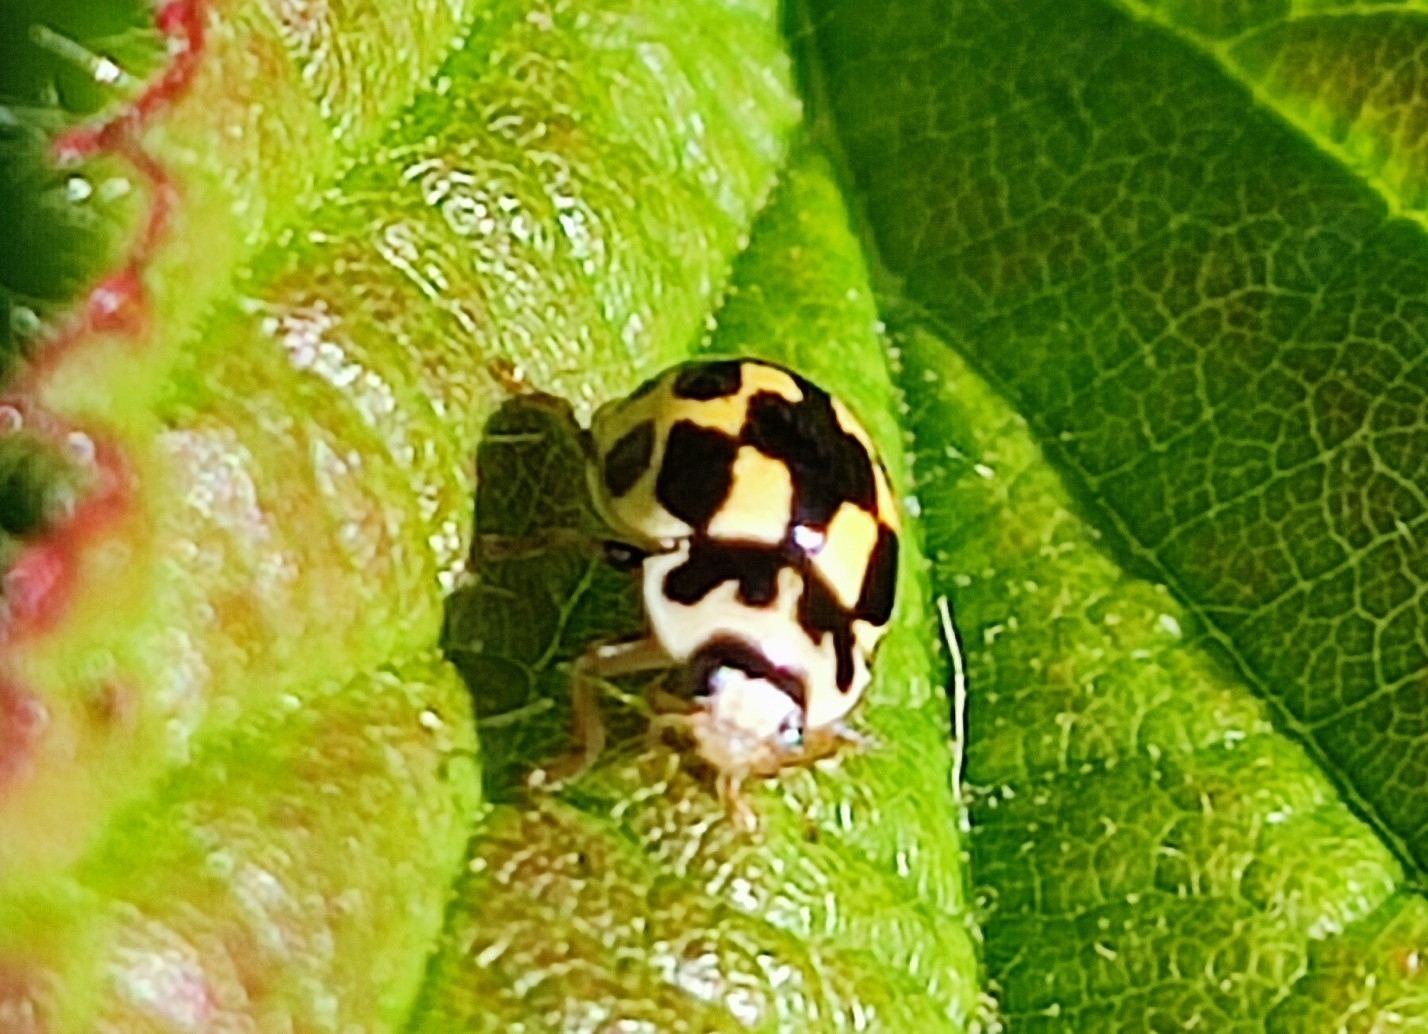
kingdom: Animalia
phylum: Arthropoda
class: Insecta
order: Coleoptera
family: Coccinellidae
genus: Propylaea
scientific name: Propylaea quatuordecimpunctata
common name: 14-spotted ladybird beetle
